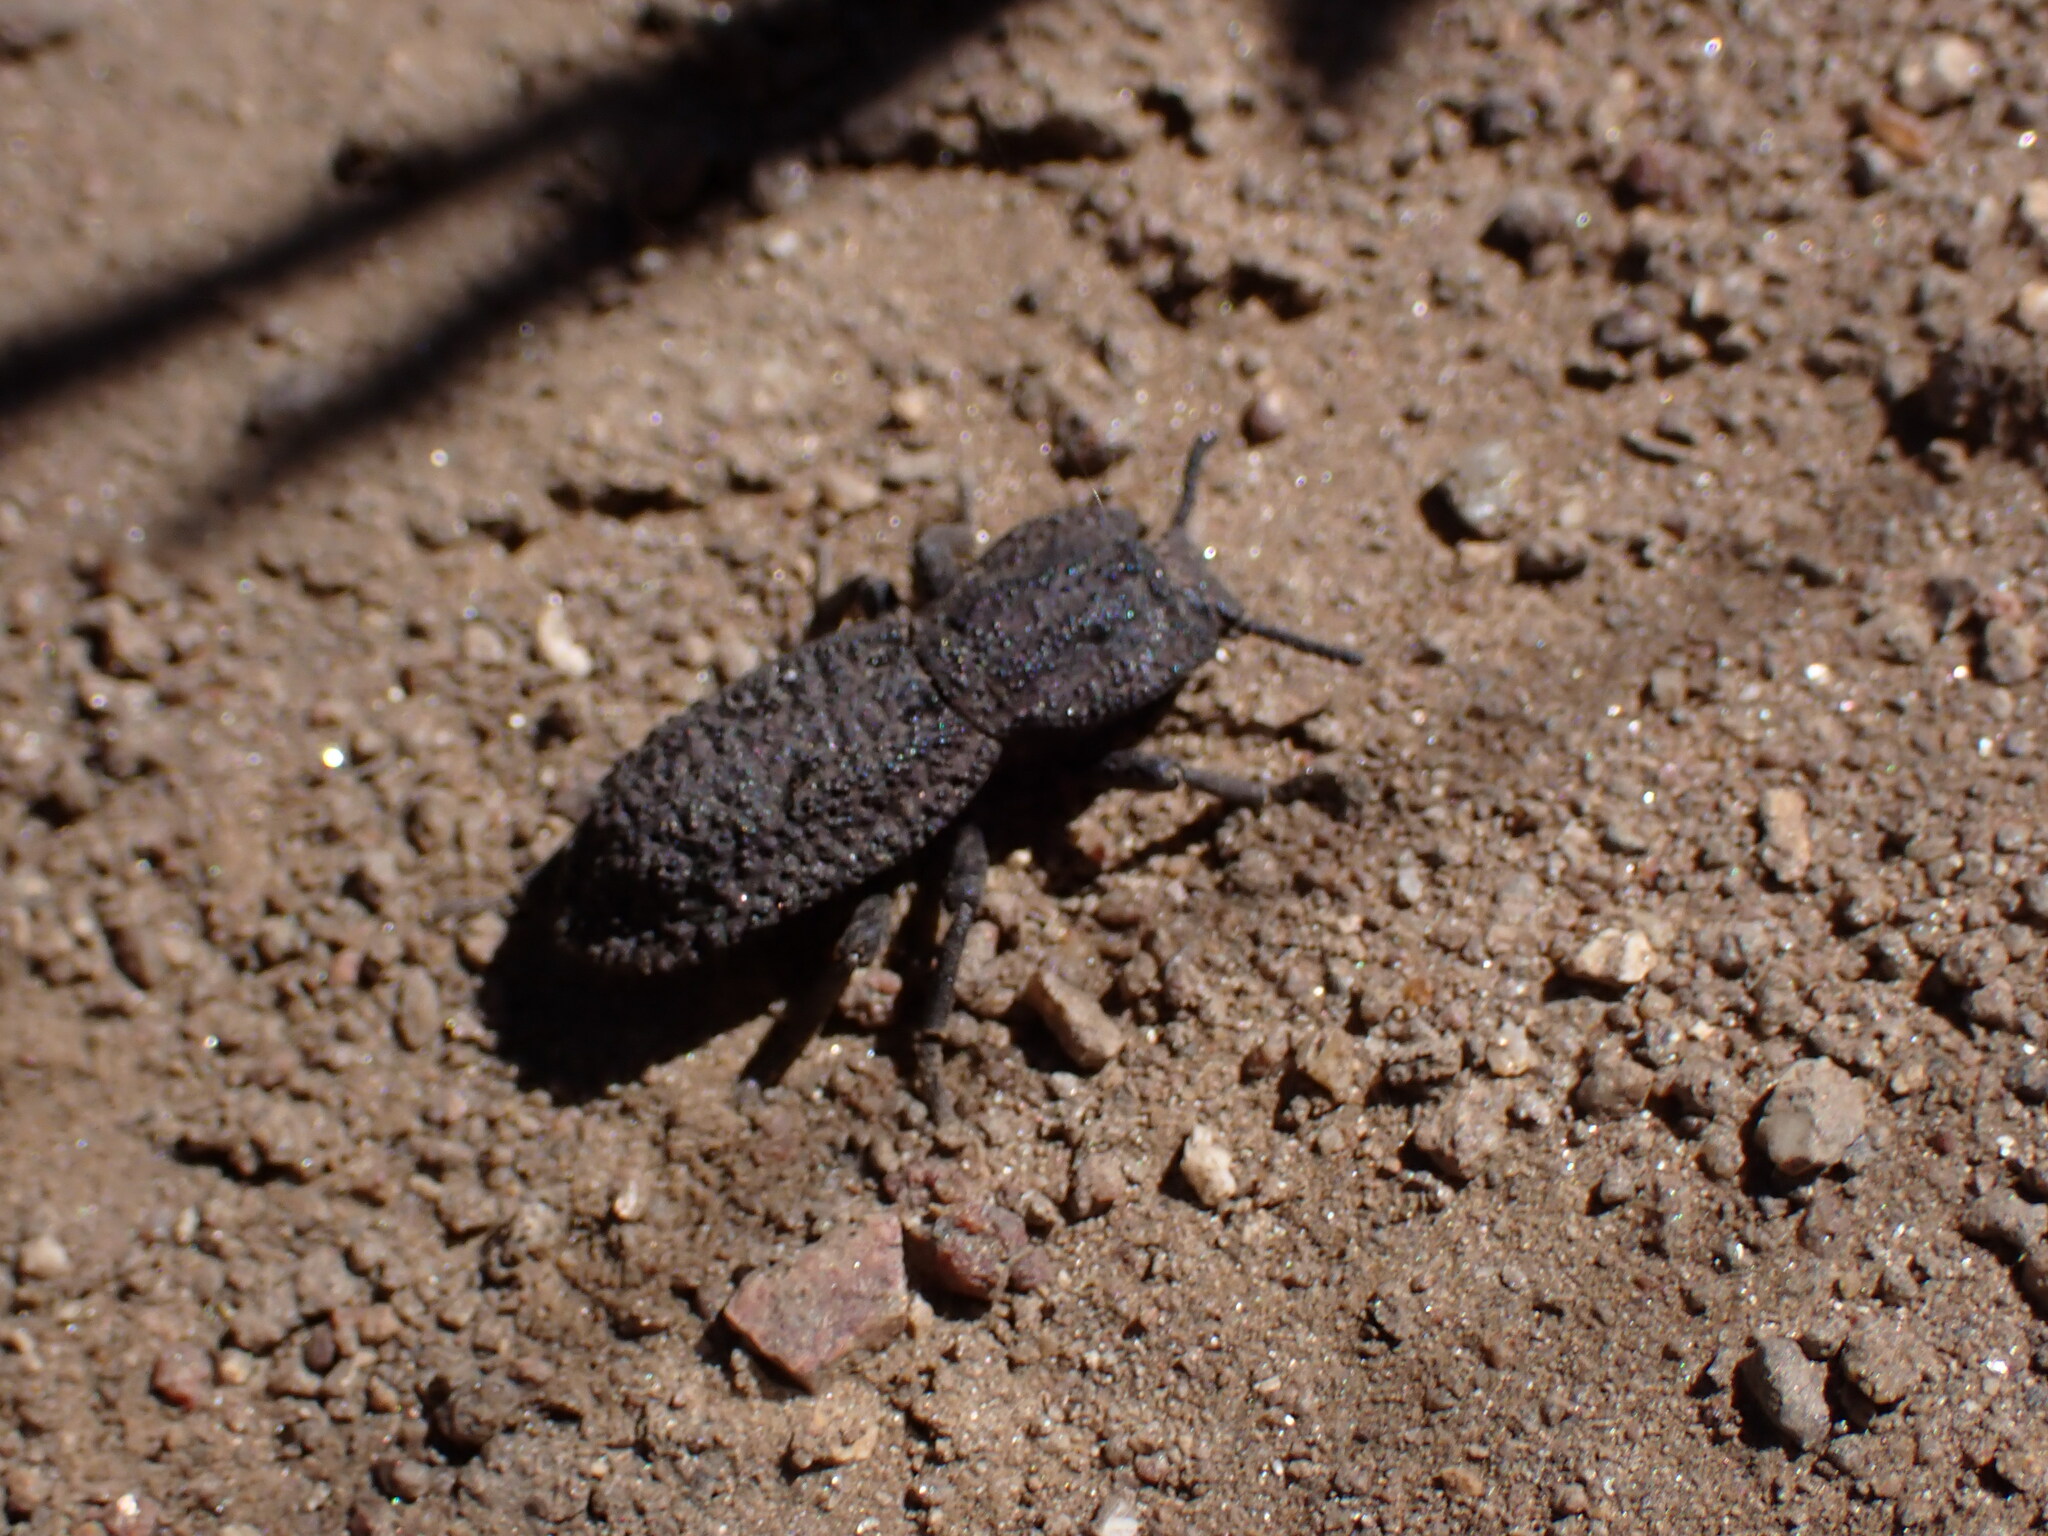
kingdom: Animalia
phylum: Arthropoda
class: Insecta
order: Coleoptera
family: Zopheridae
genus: Phloeodes
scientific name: Phloeodes diabolicus
